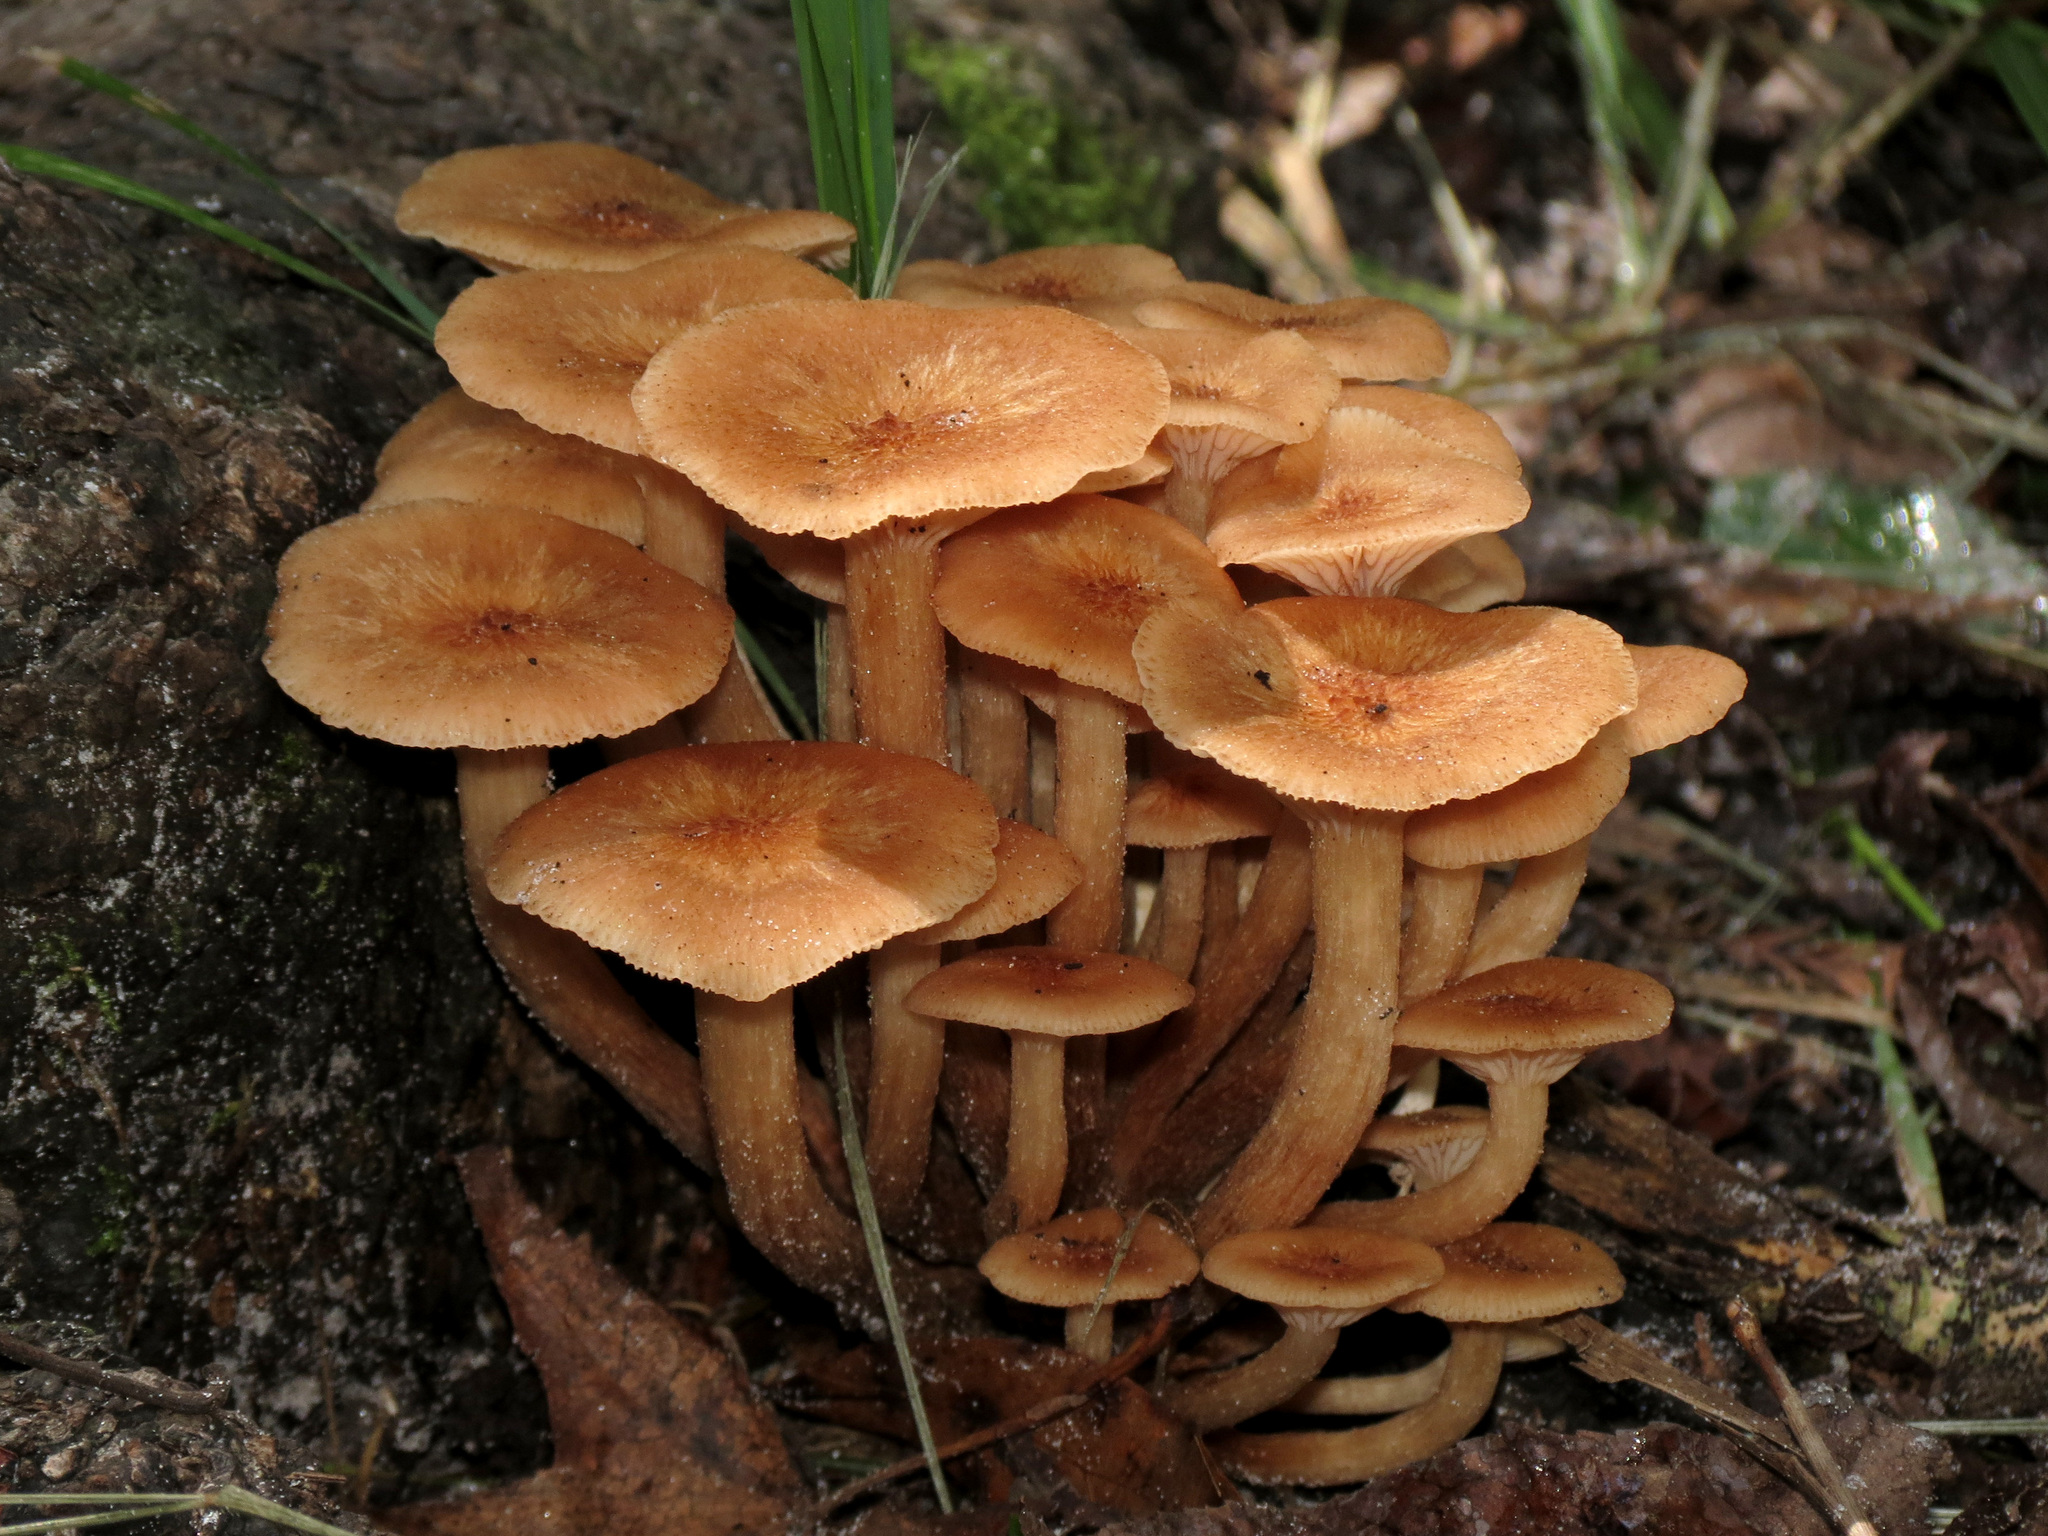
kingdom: Fungi
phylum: Basidiomycota
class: Agaricomycetes
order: Agaricales
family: Physalacriaceae
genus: Desarmillaria
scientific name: Desarmillaria caespitosa
